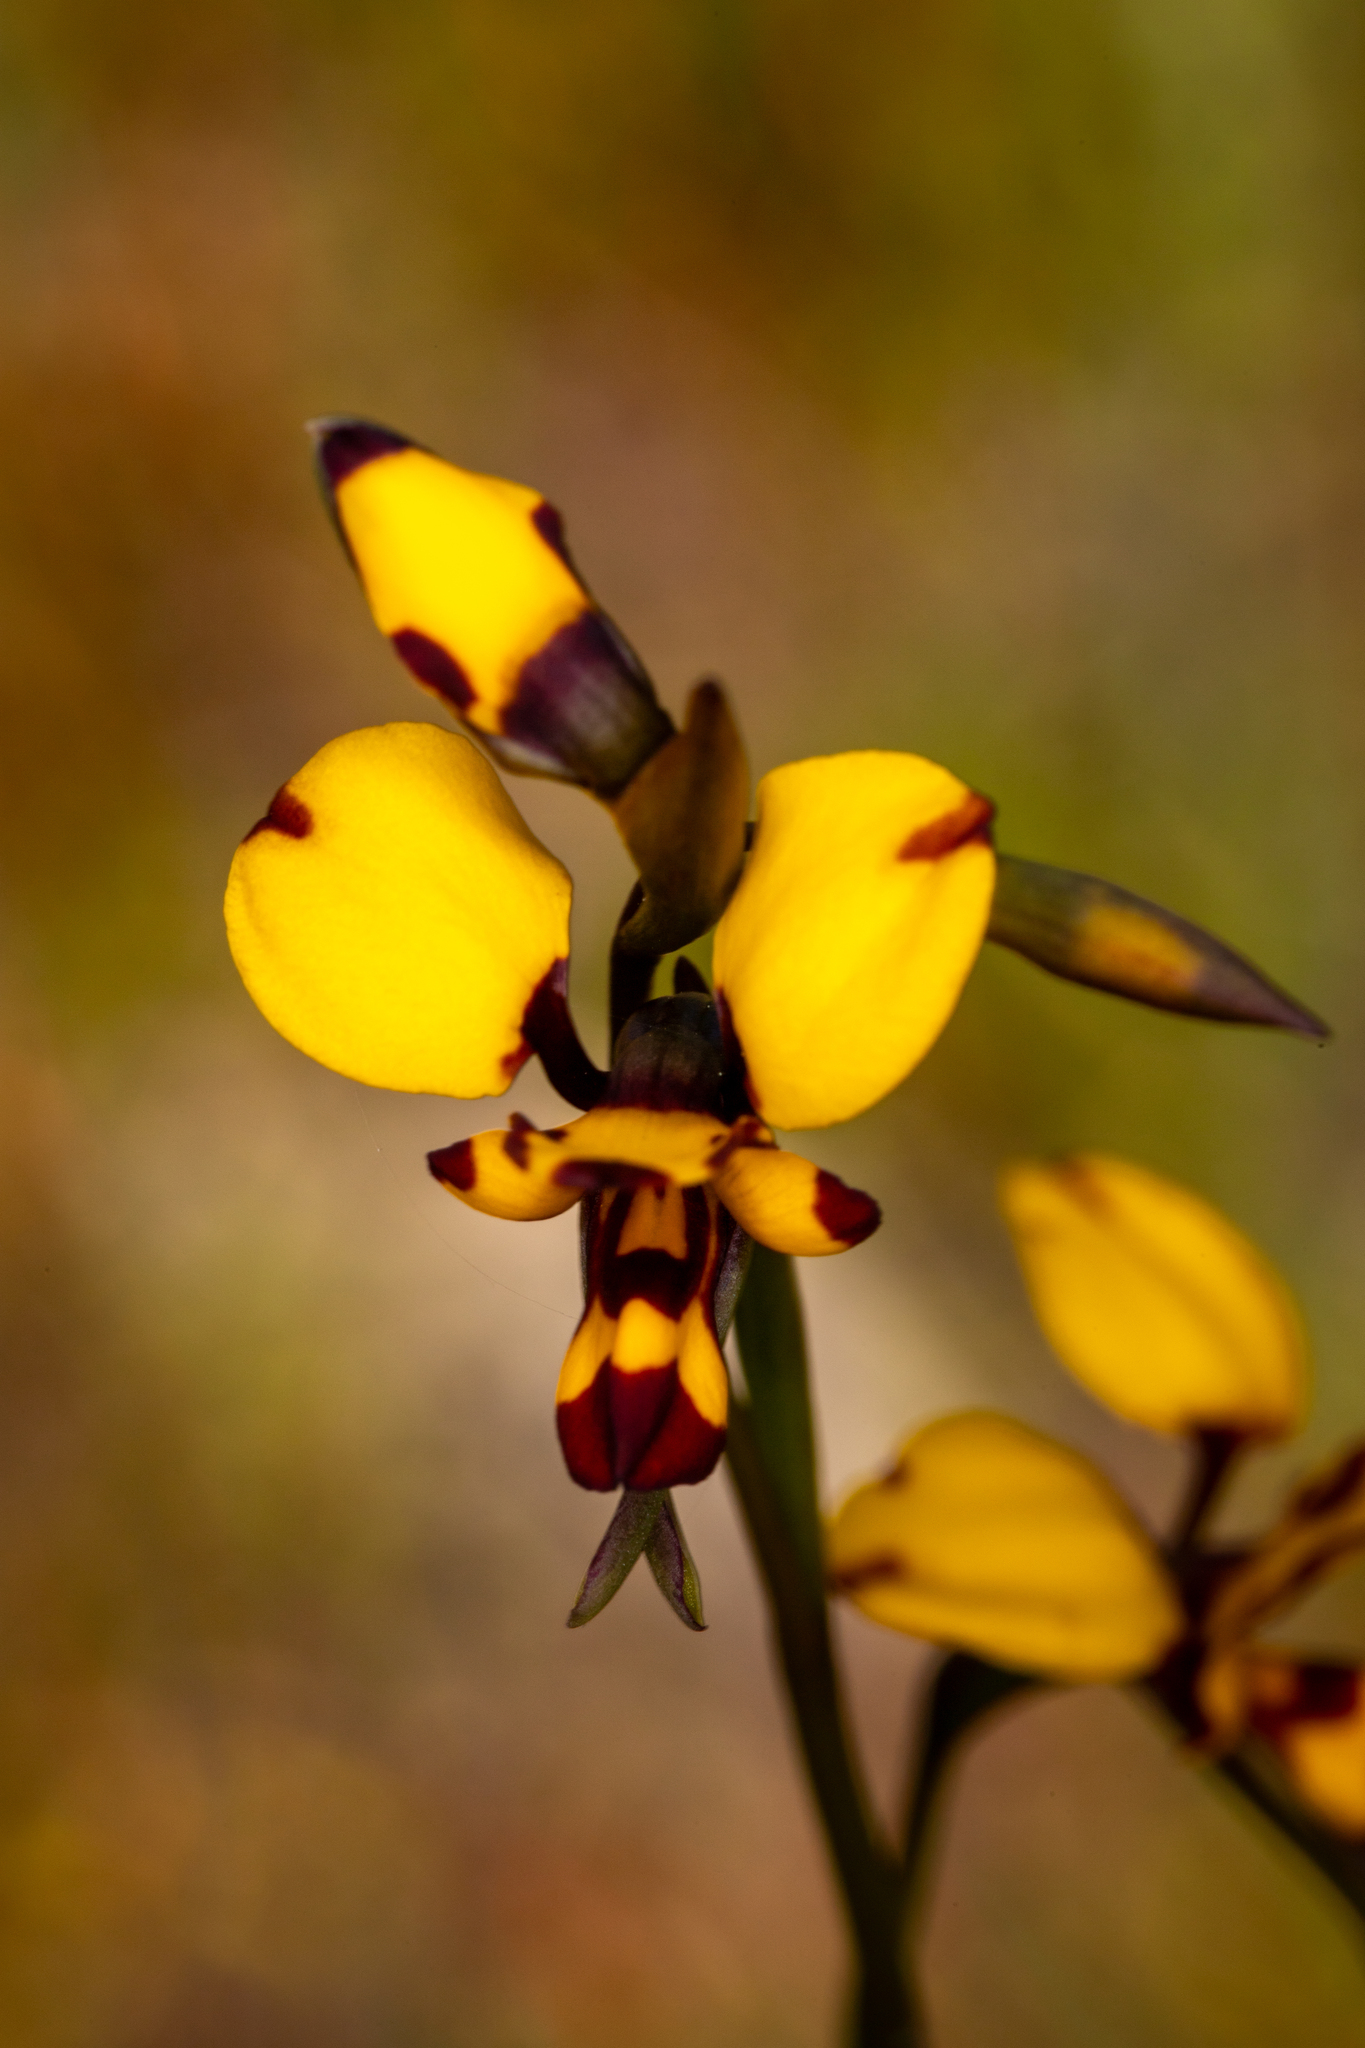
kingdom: Plantae
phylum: Tracheophyta
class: Liliopsida
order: Asparagales
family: Orchidaceae
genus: Diuris
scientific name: Diuris laxiflora
